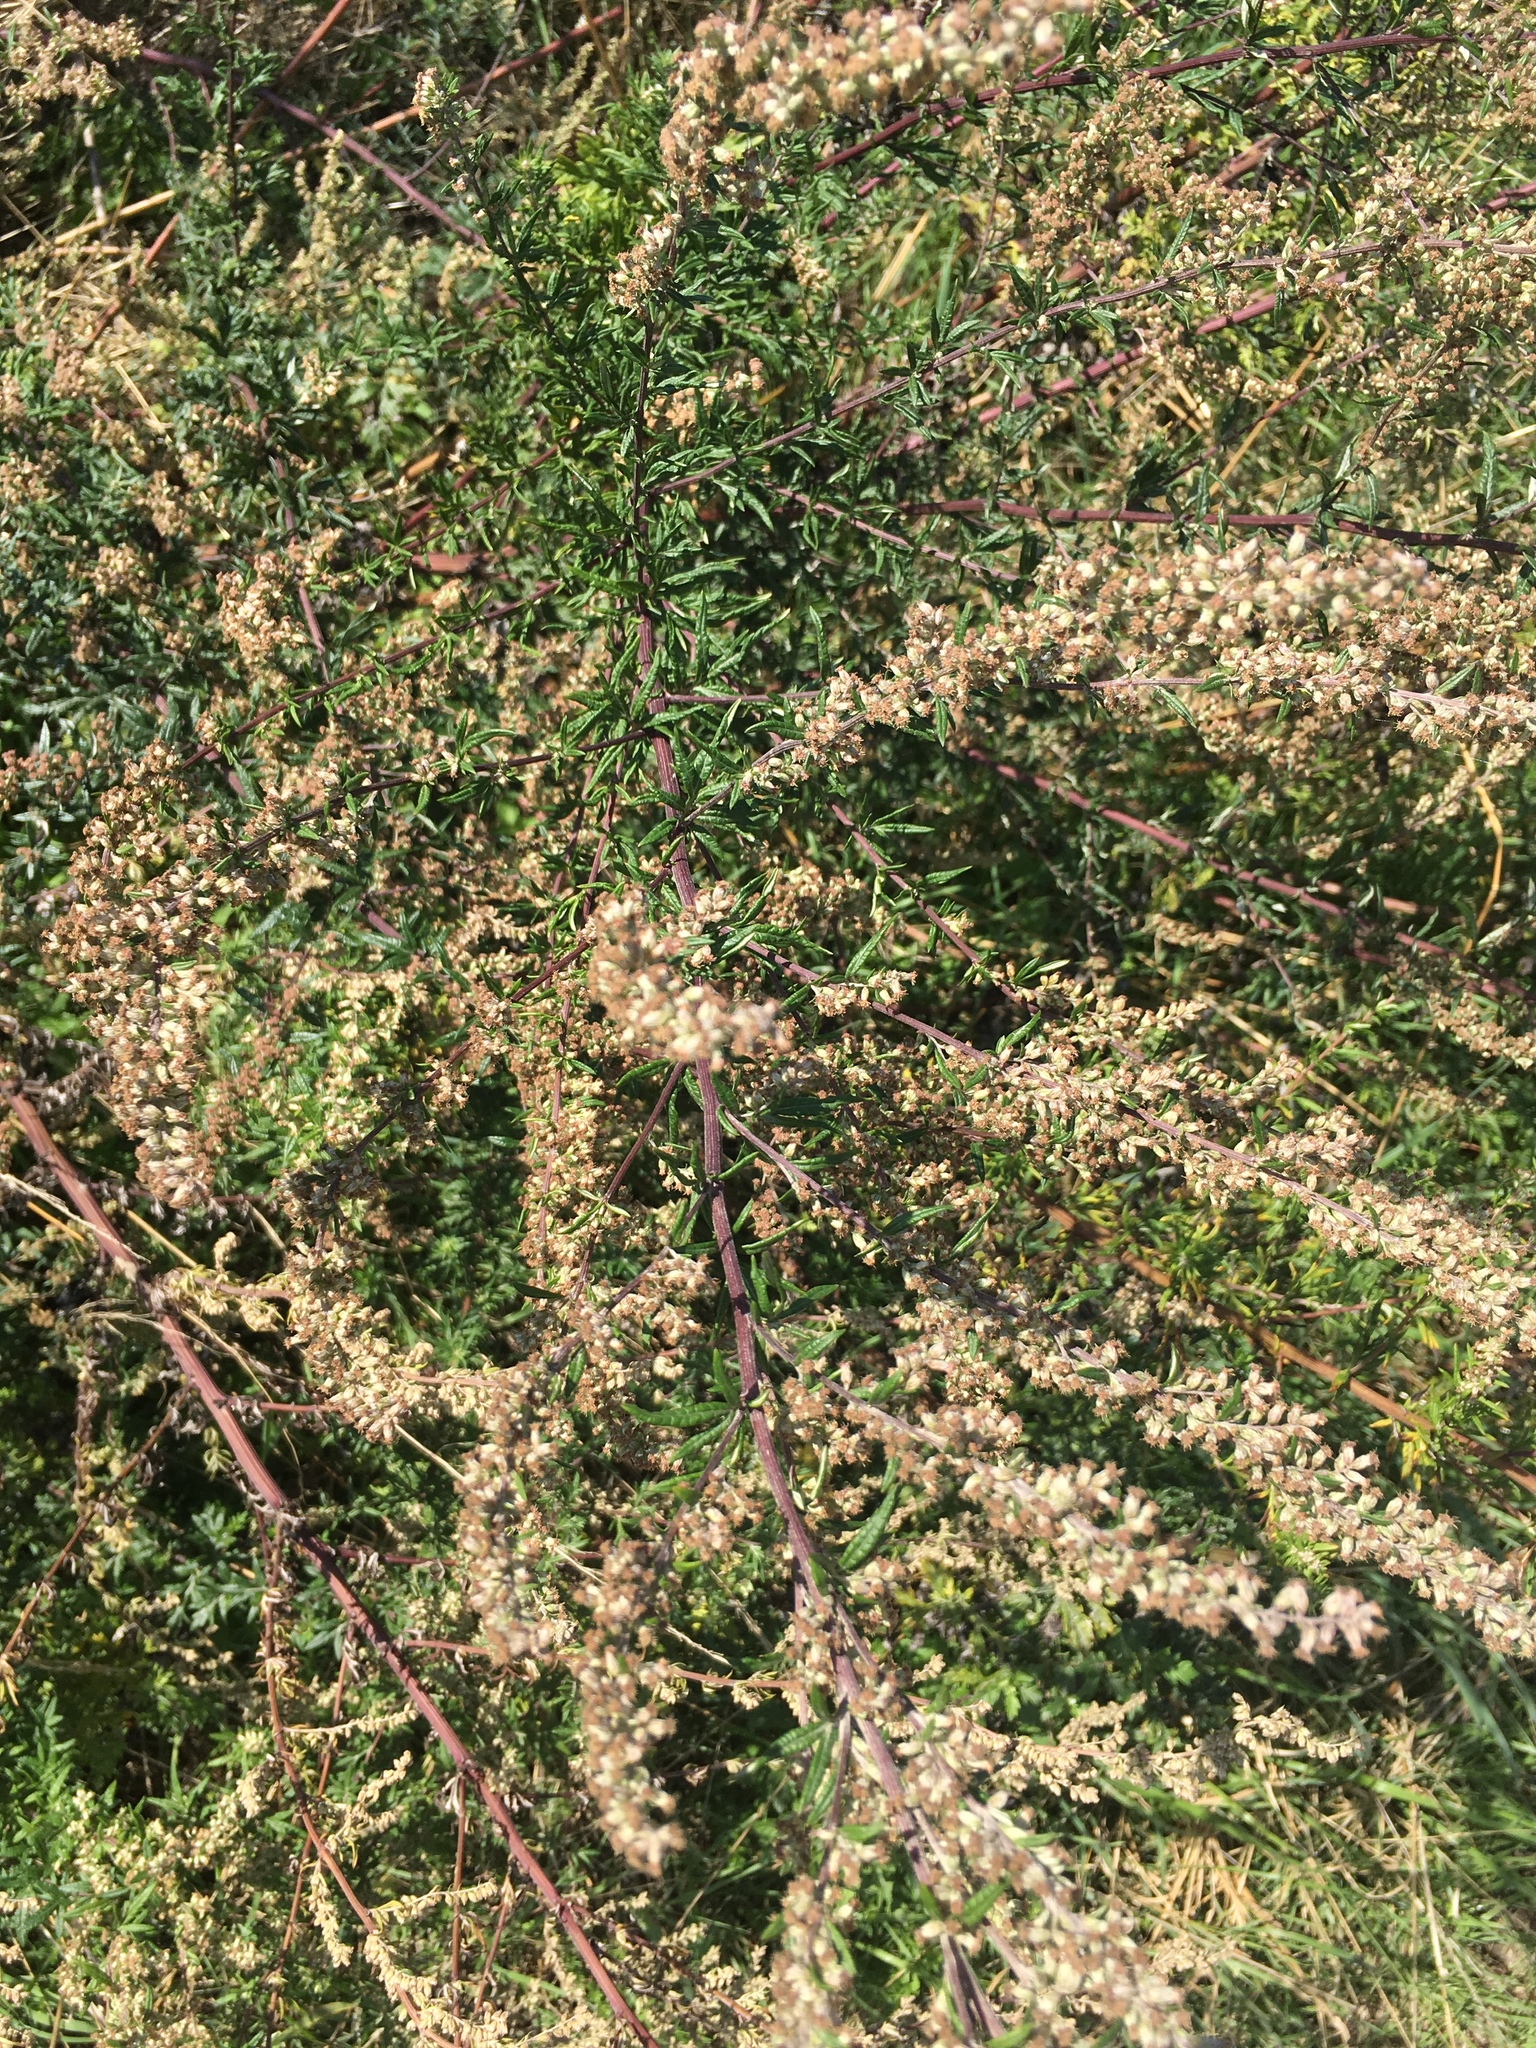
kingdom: Plantae
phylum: Tracheophyta
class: Magnoliopsida
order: Asterales
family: Asteraceae
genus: Artemisia
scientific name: Artemisia vulgaris
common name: Mugwort
